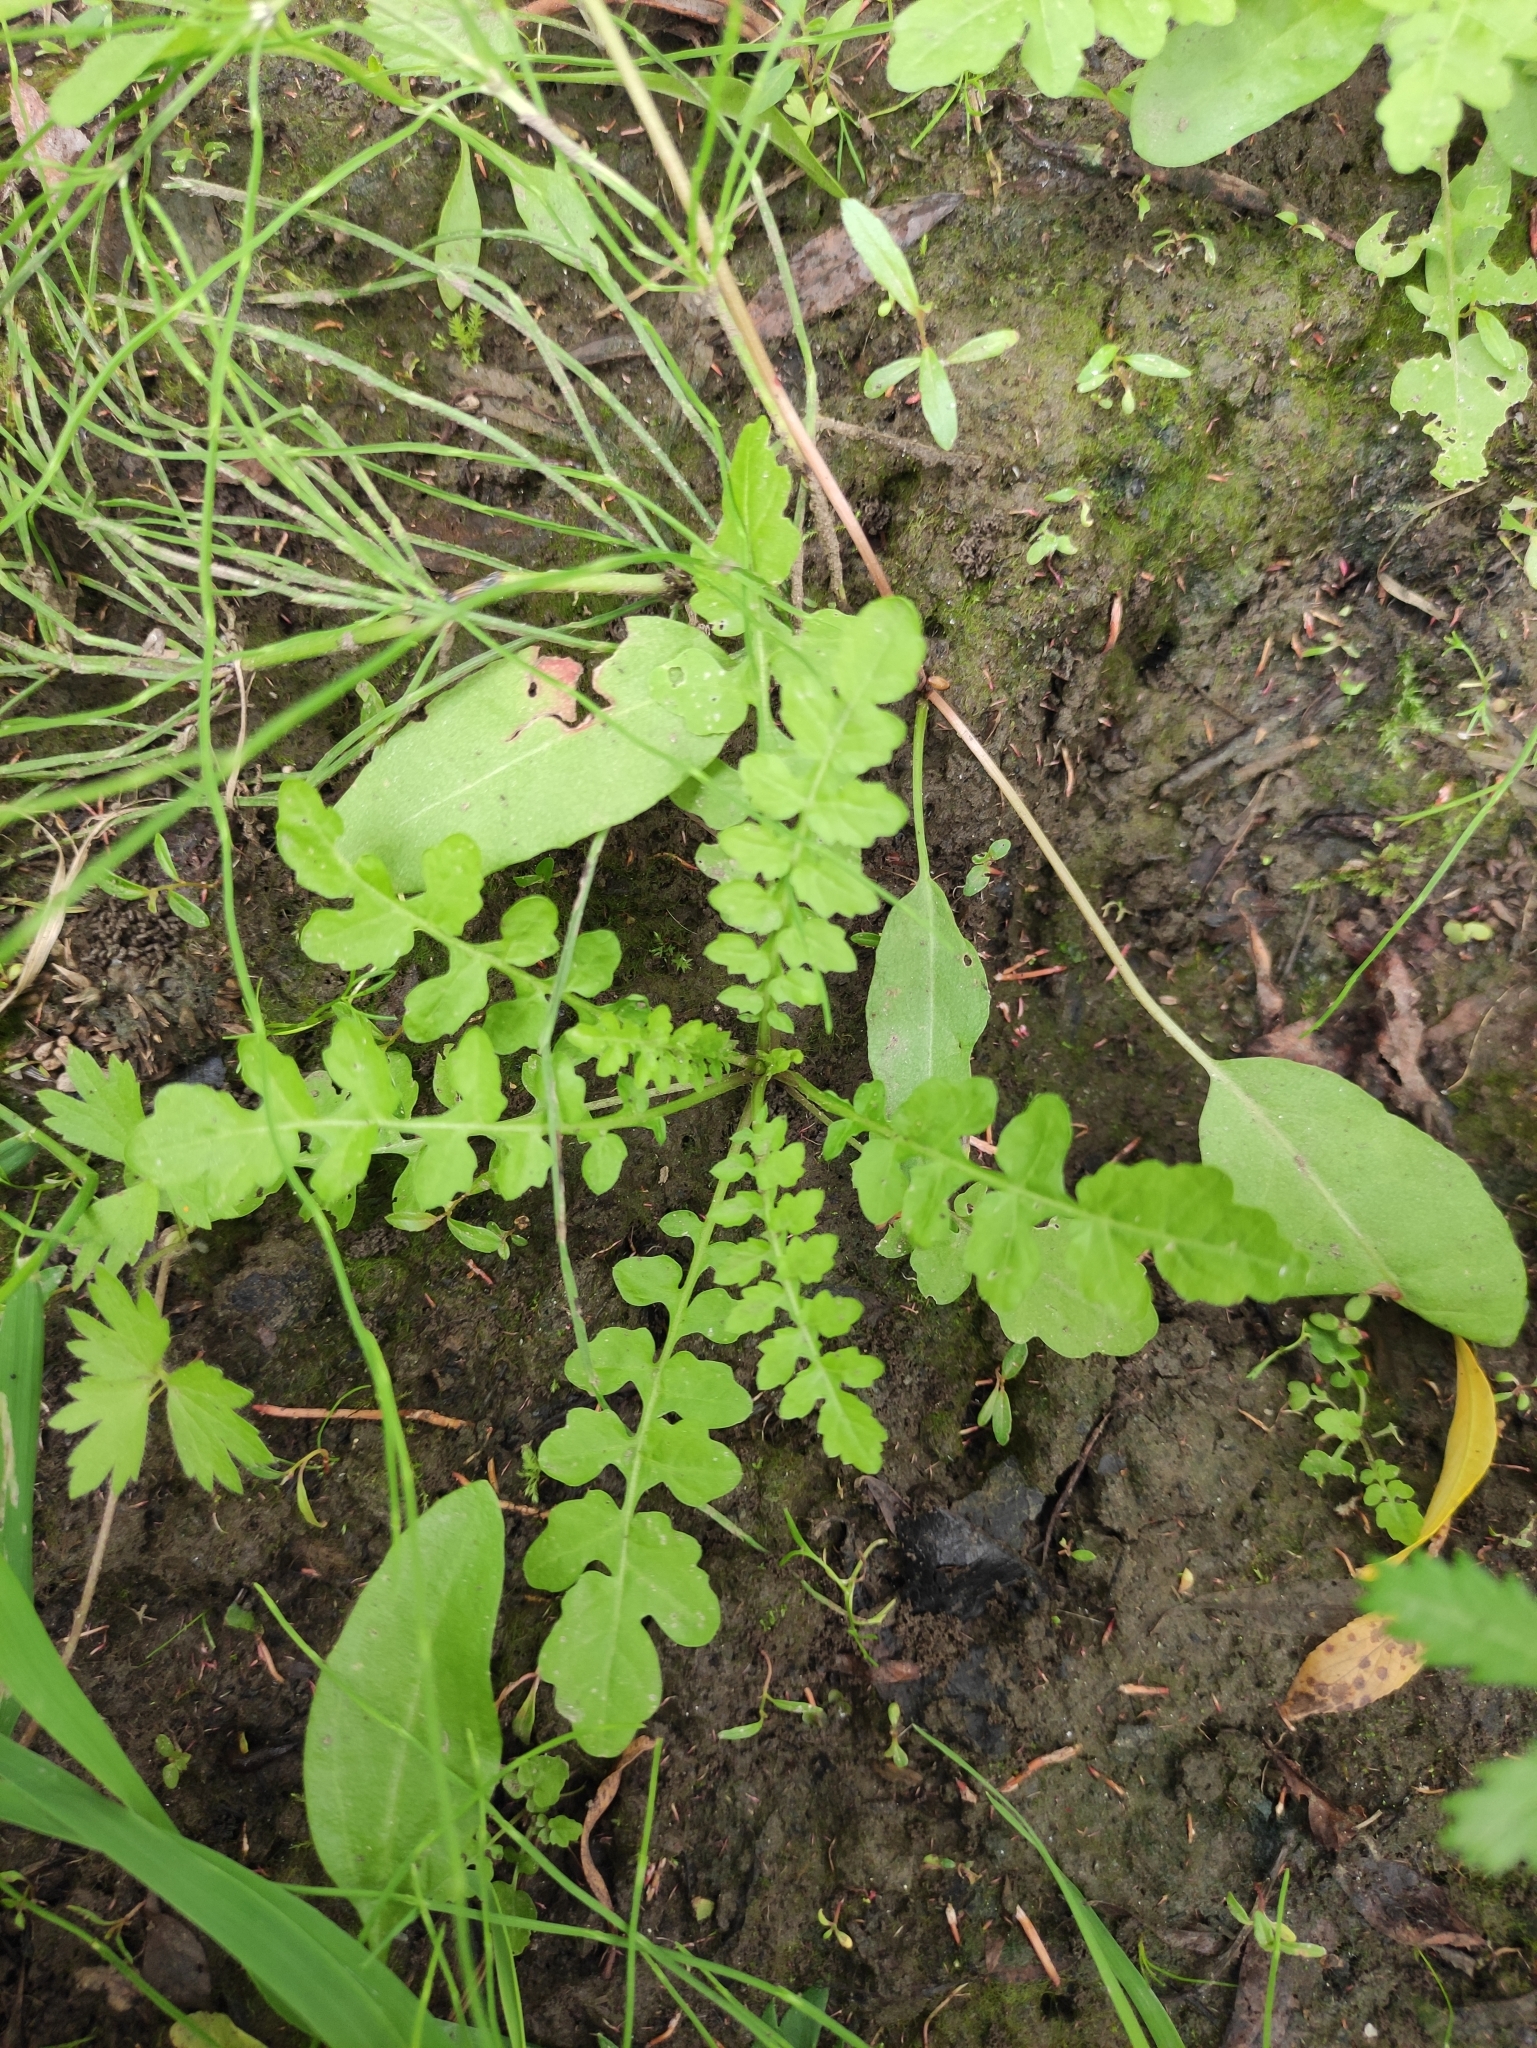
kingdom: Plantae
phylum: Tracheophyta
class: Magnoliopsida
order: Brassicales
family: Brassicaceae
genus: Rorippa
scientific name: Rorippa palustris
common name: Marsh yellow-cress
